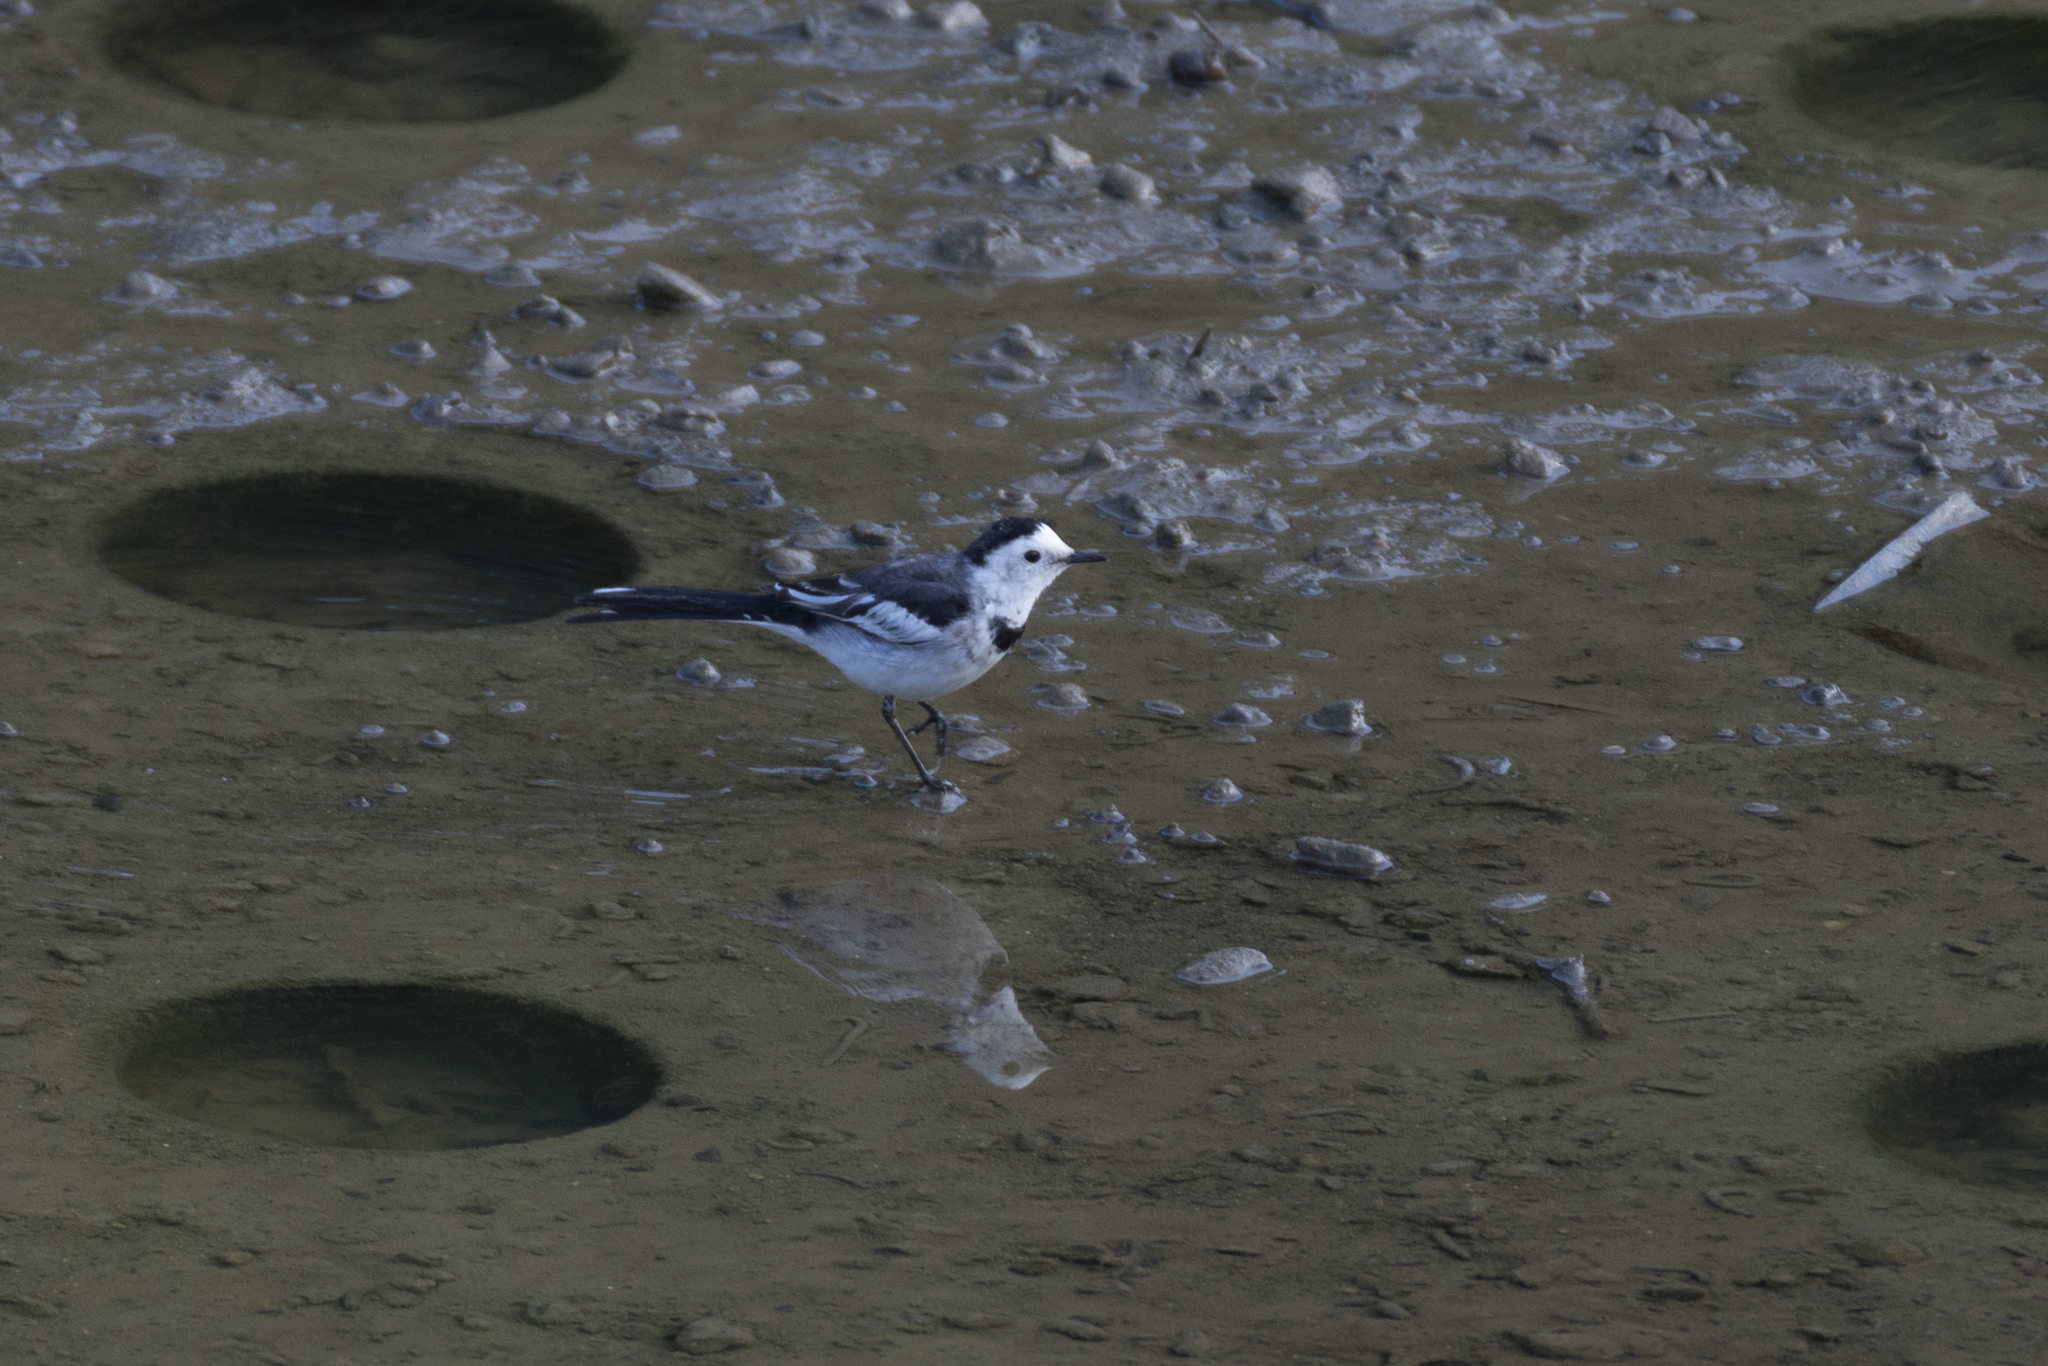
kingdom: Animalia
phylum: Chordata
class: Aves
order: Passeriformes
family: Motacillidae
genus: Motacilla
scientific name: Motacilla alba
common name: White wagtail
